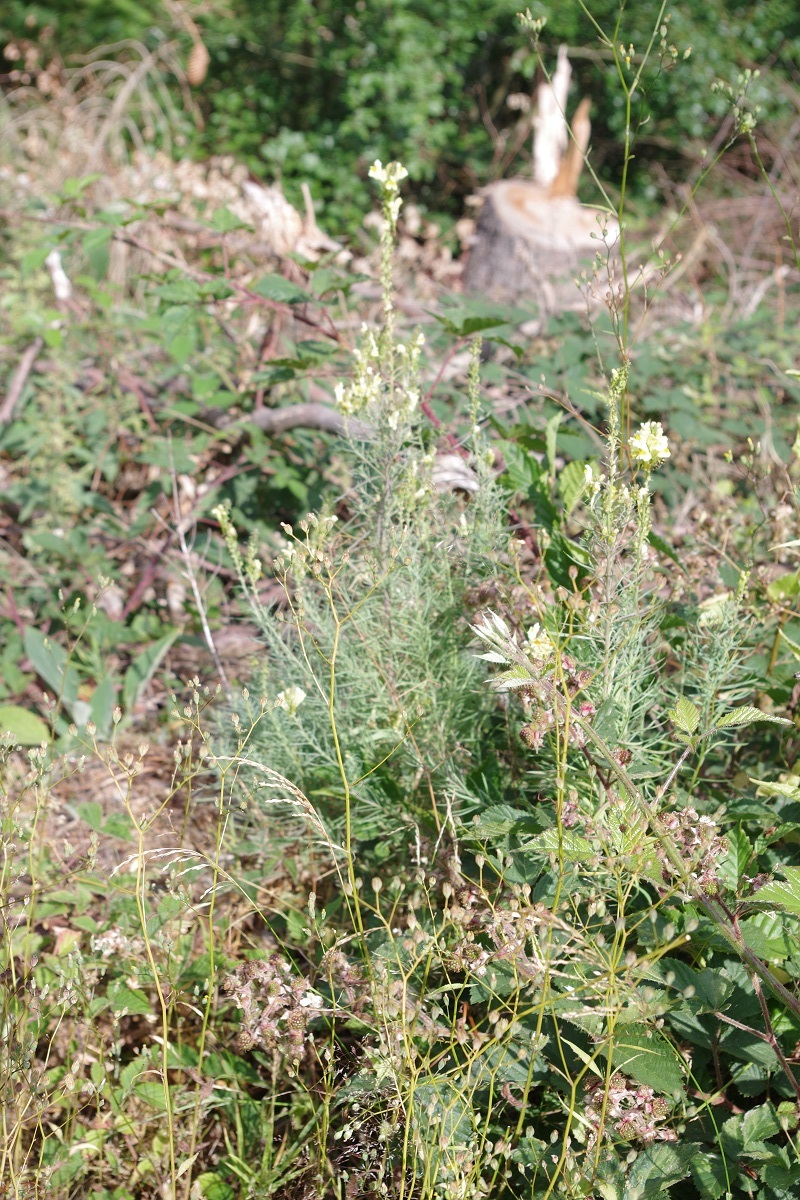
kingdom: Plantae
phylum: Tracheophyta
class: Magnoliopsida
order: Lamiales
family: Plantaginaceae
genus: Linaria
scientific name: Linaria vulgaris
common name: Butter and eggs
